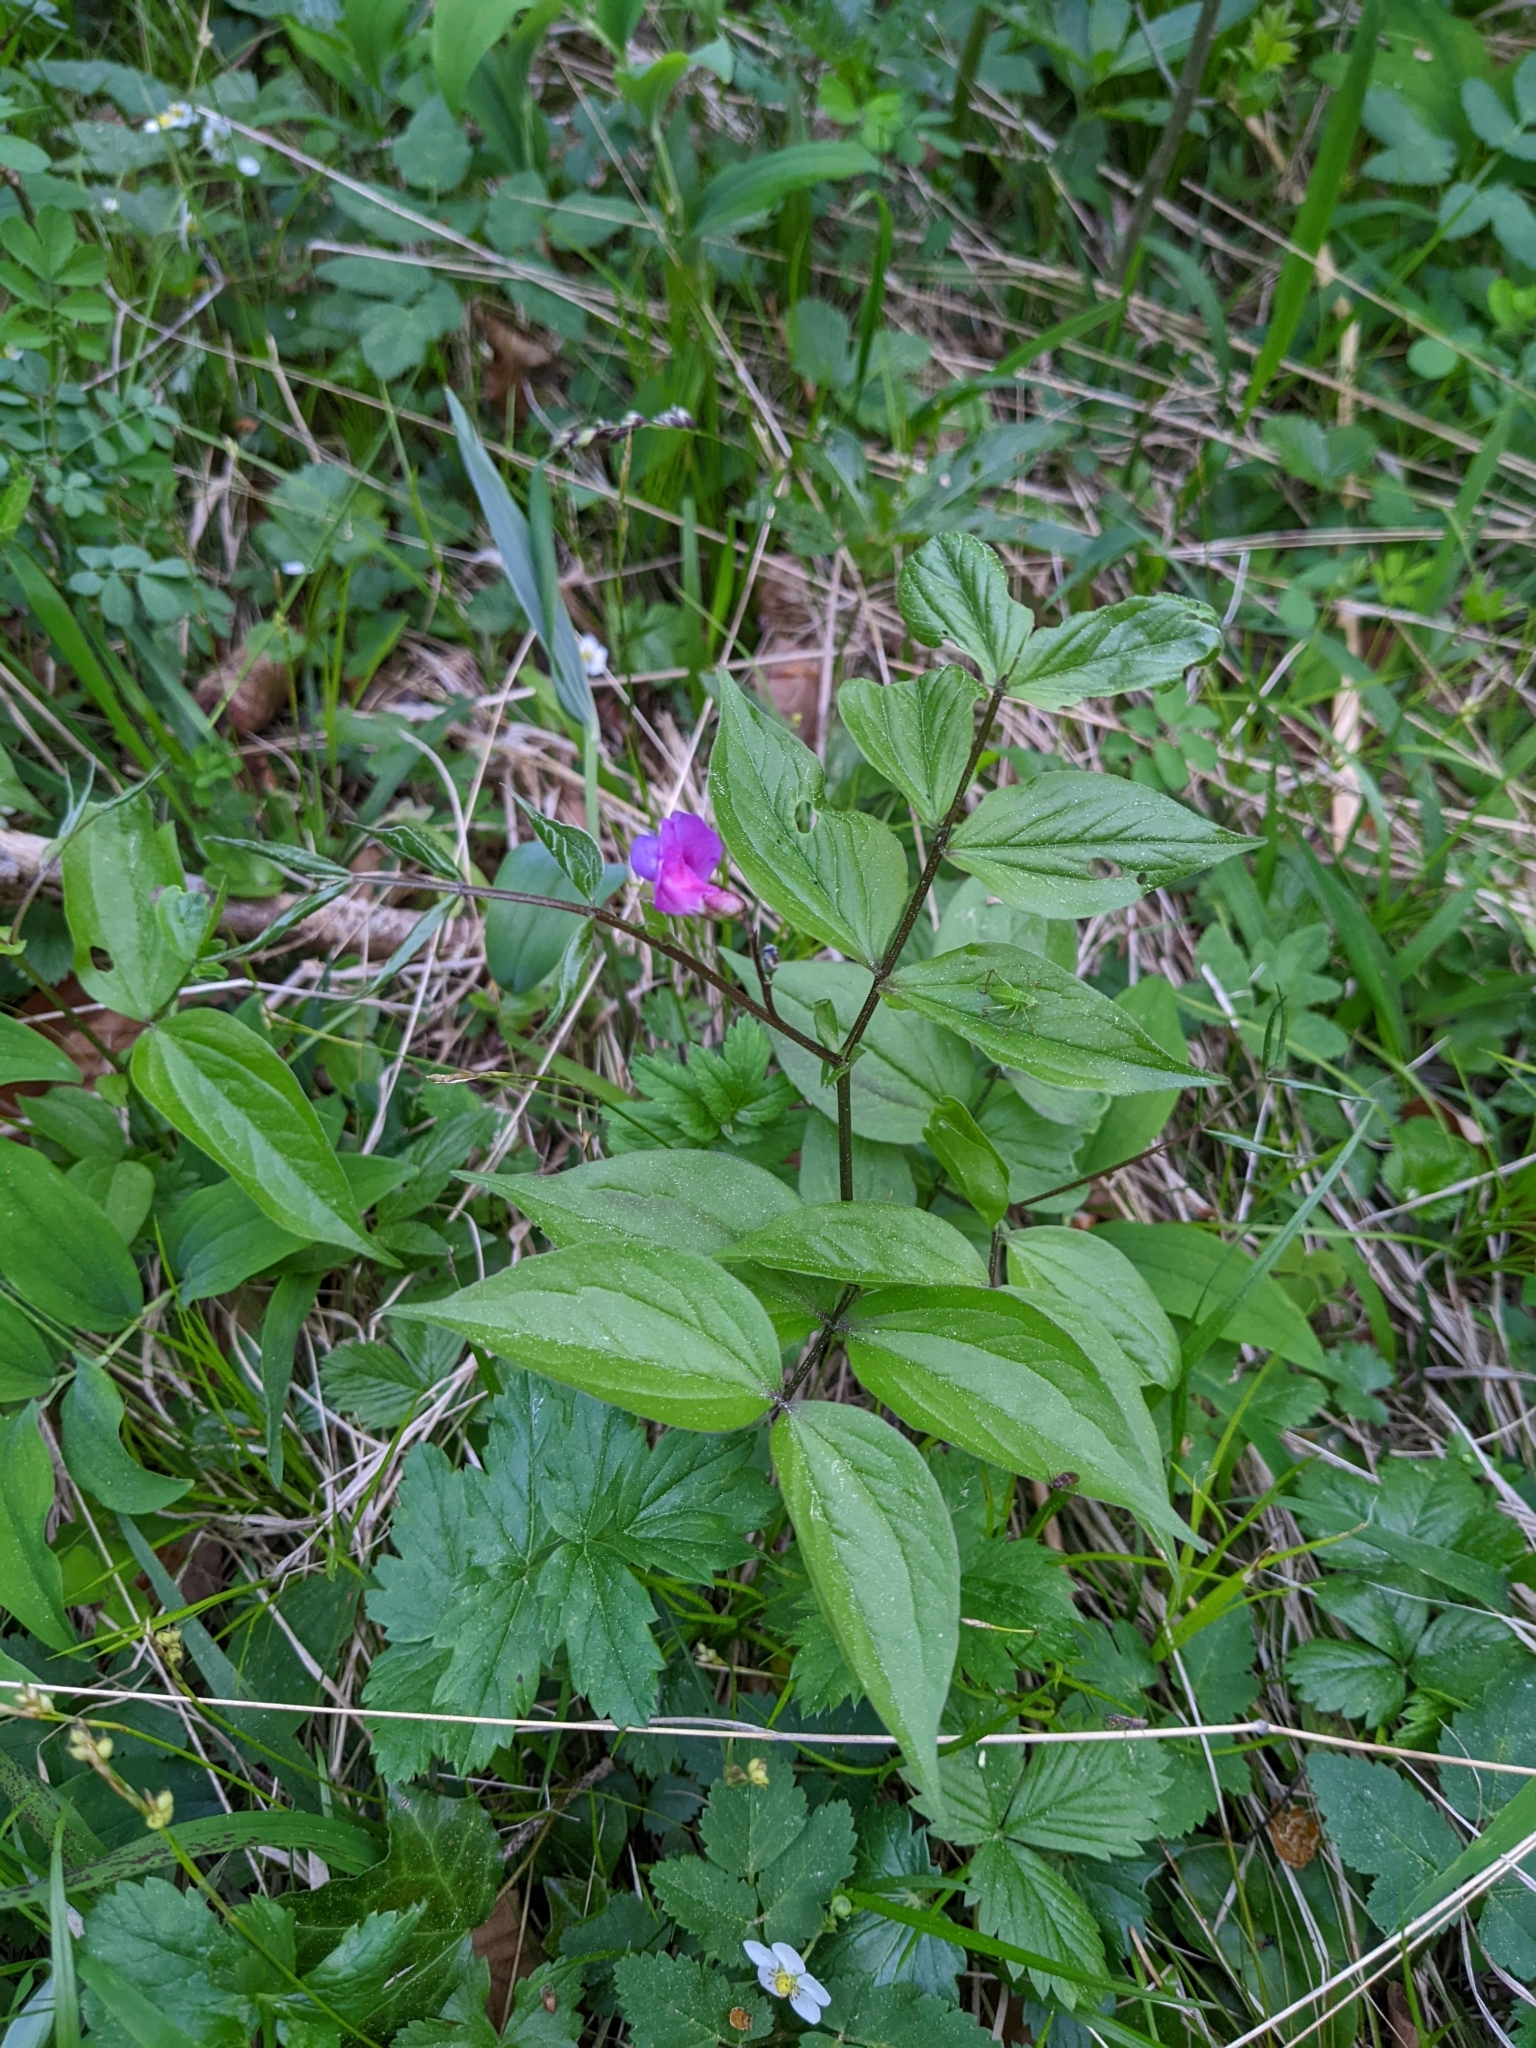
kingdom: Plantae
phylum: Tracheophyta
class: Magnoliopsida
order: Fabales
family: Fabaceae
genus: Lathyrus
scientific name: Lathyrus vernus
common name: Spring pea
